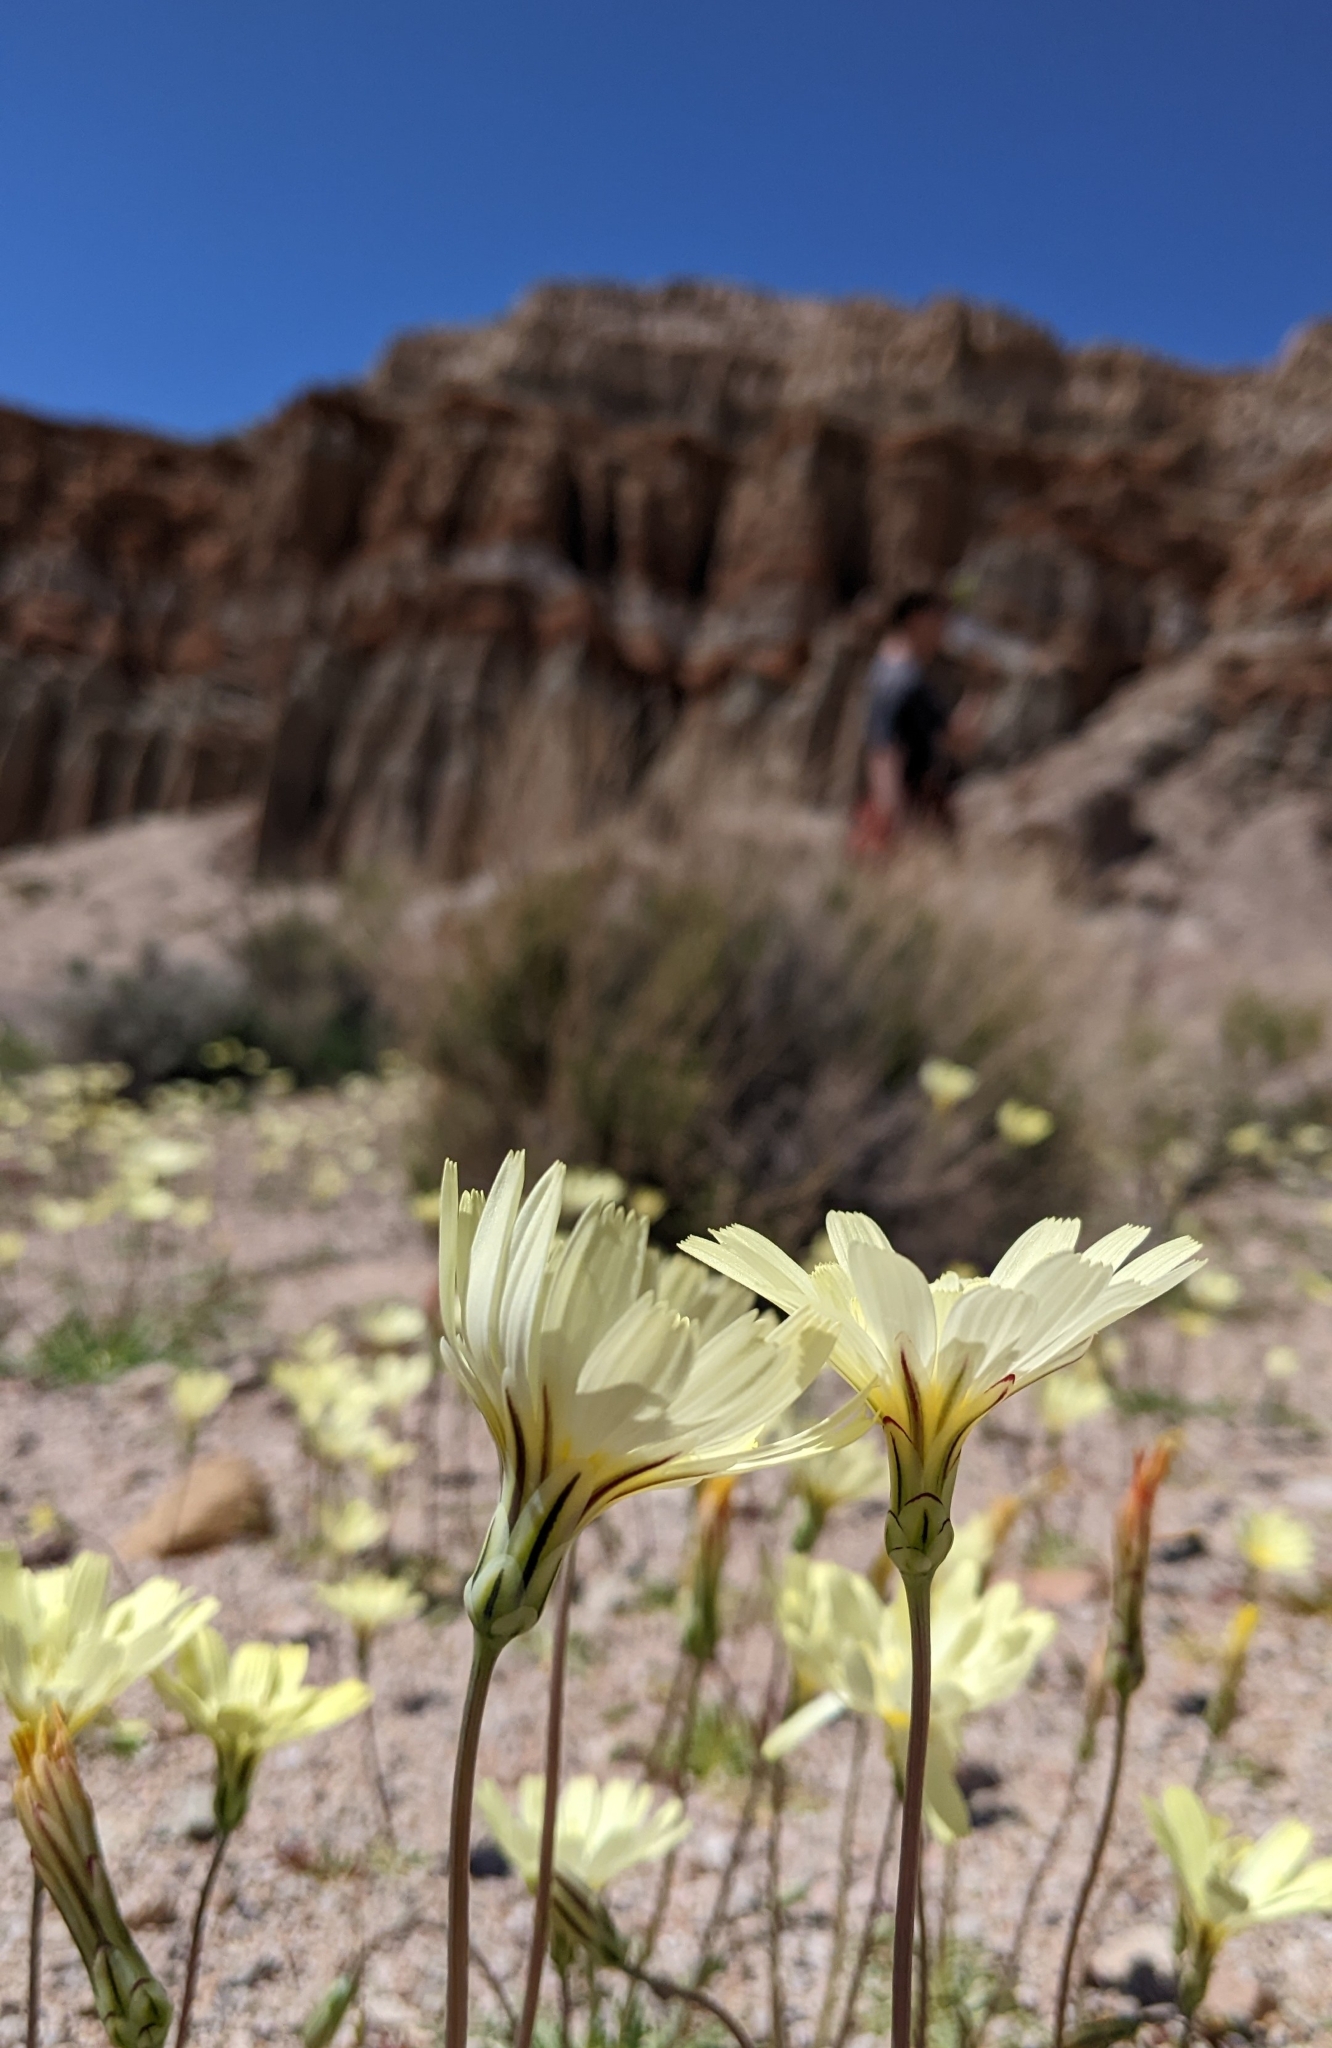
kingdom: Plantae
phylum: Tracheophyta
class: Magnoliopsida
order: Asterales
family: Asteraceae
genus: Anisocoma
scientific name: Anisocoma acaulis
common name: Scalebud
